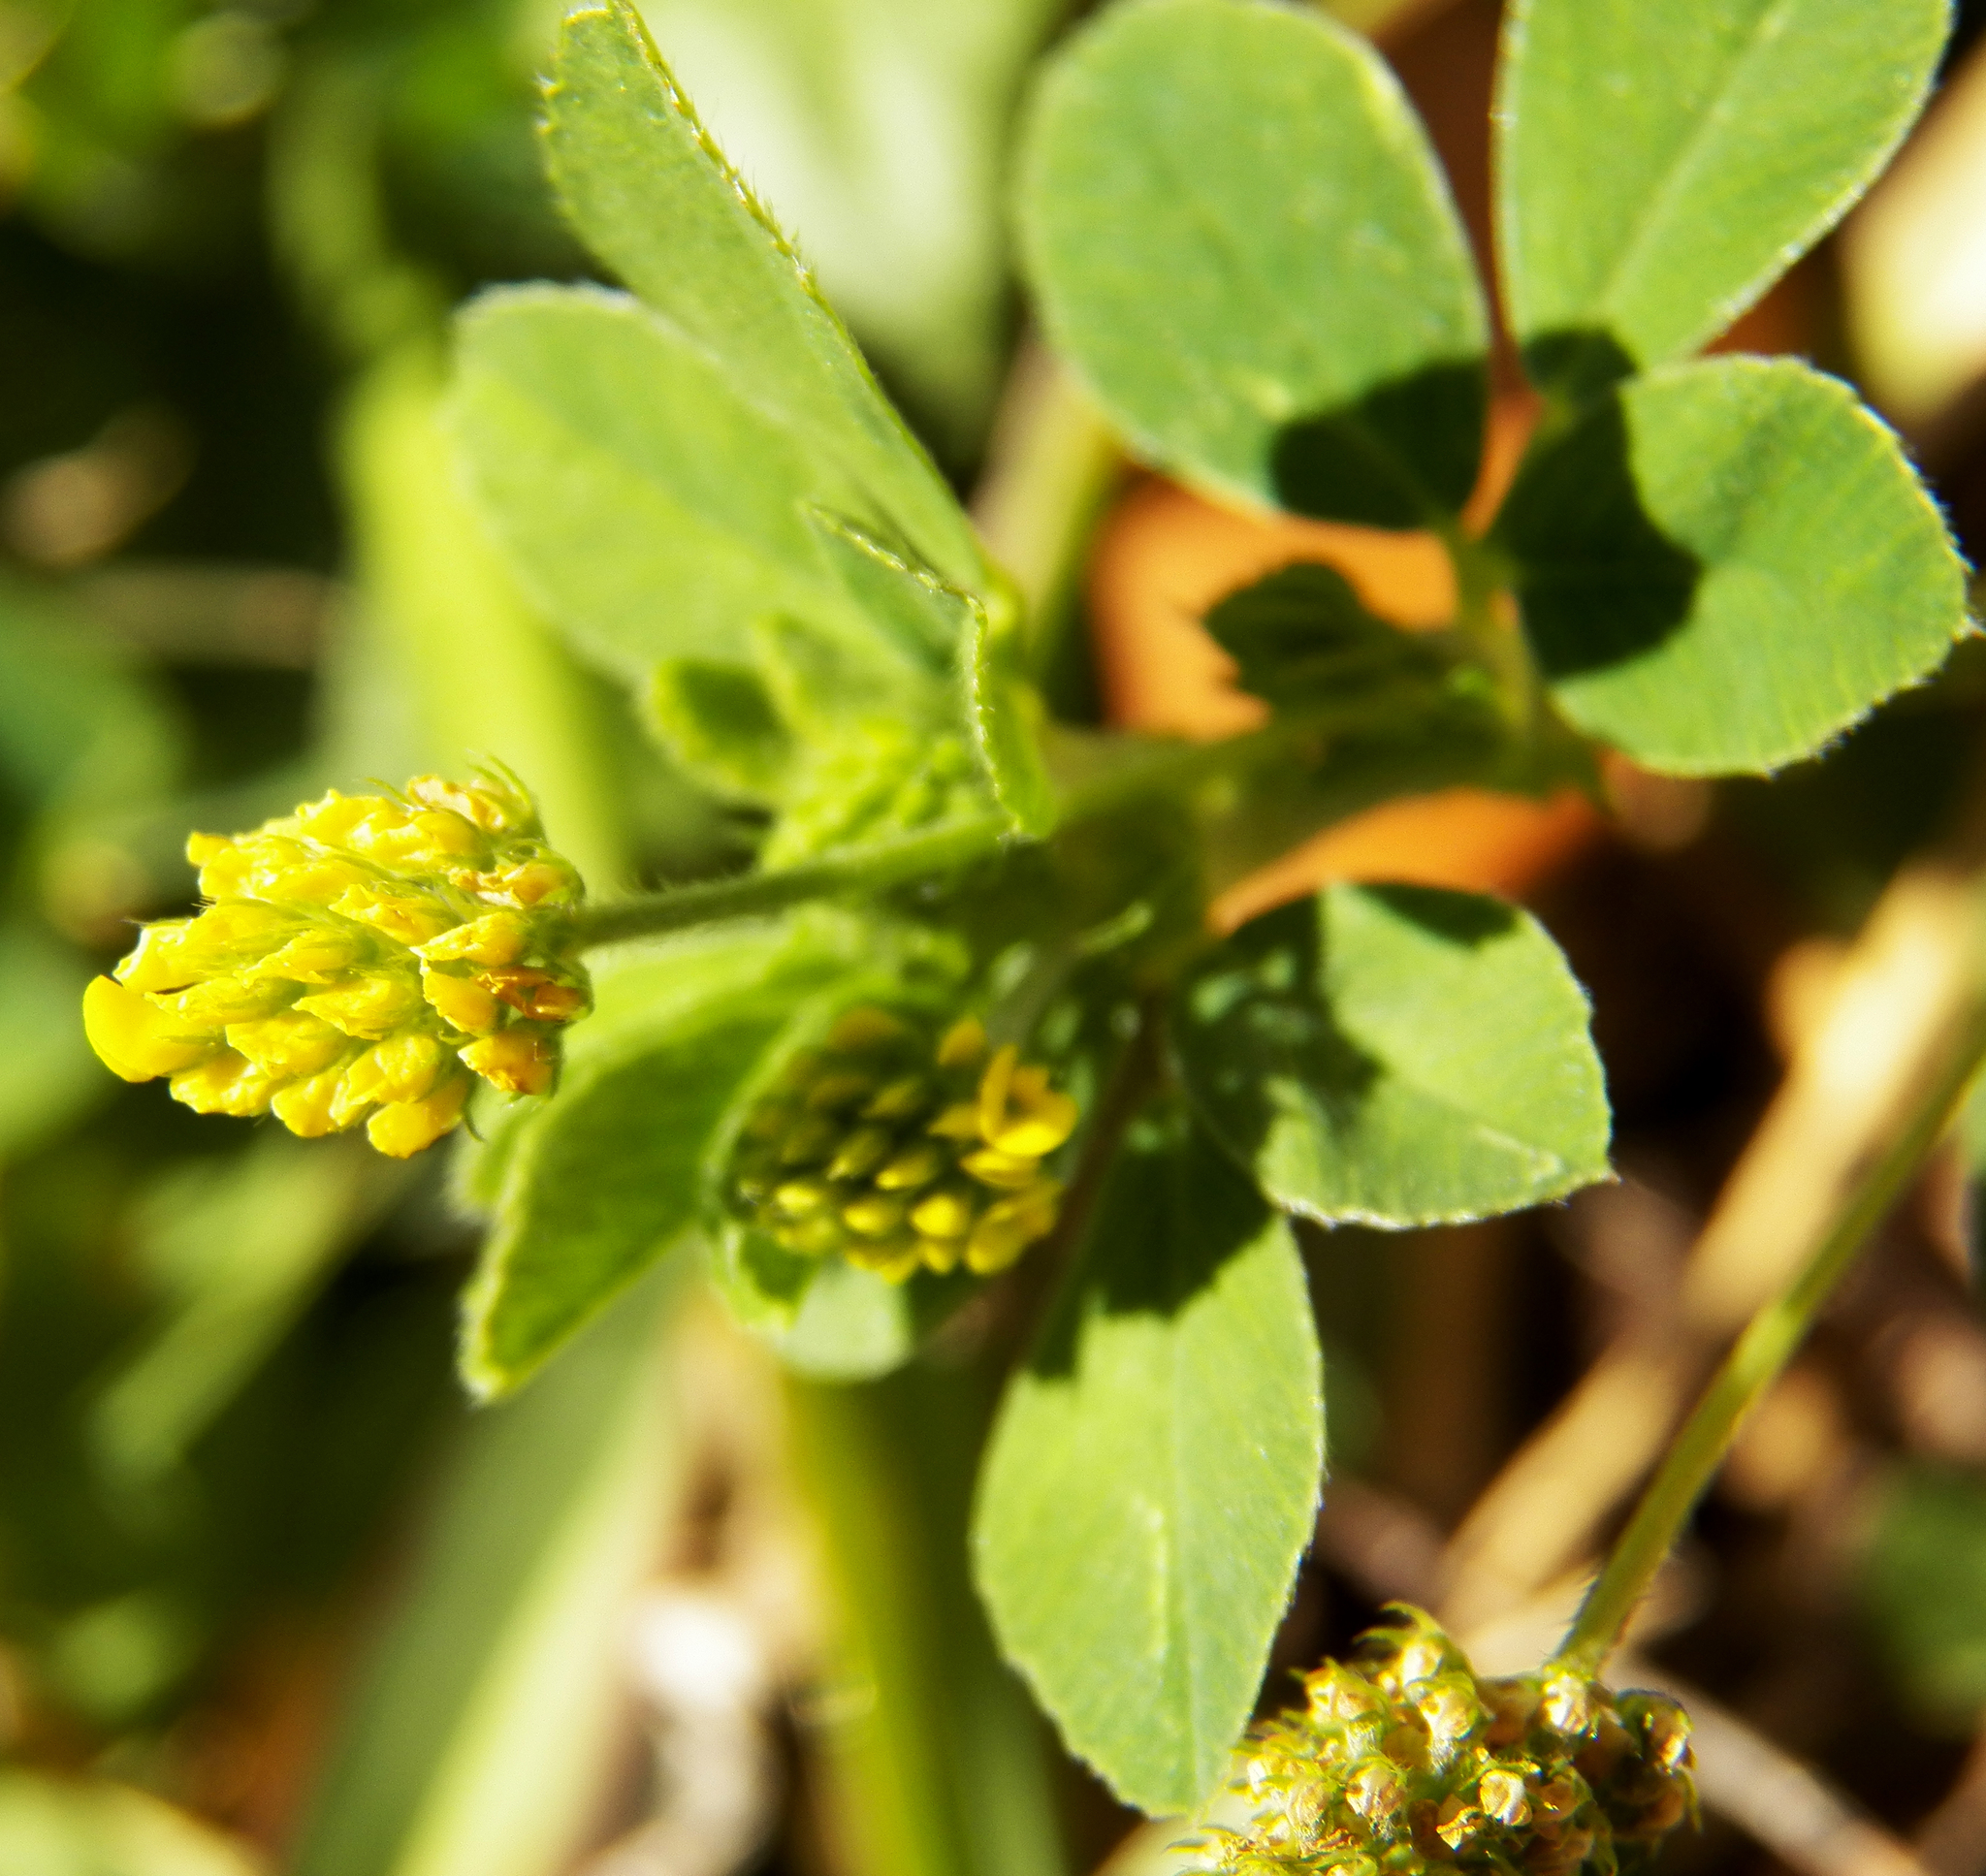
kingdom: Plantae
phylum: Tracheophyta
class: Magnoliopsida
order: Fabales
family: Fabaceae
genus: Medicago
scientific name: Medicago lupulina
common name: Black medick
